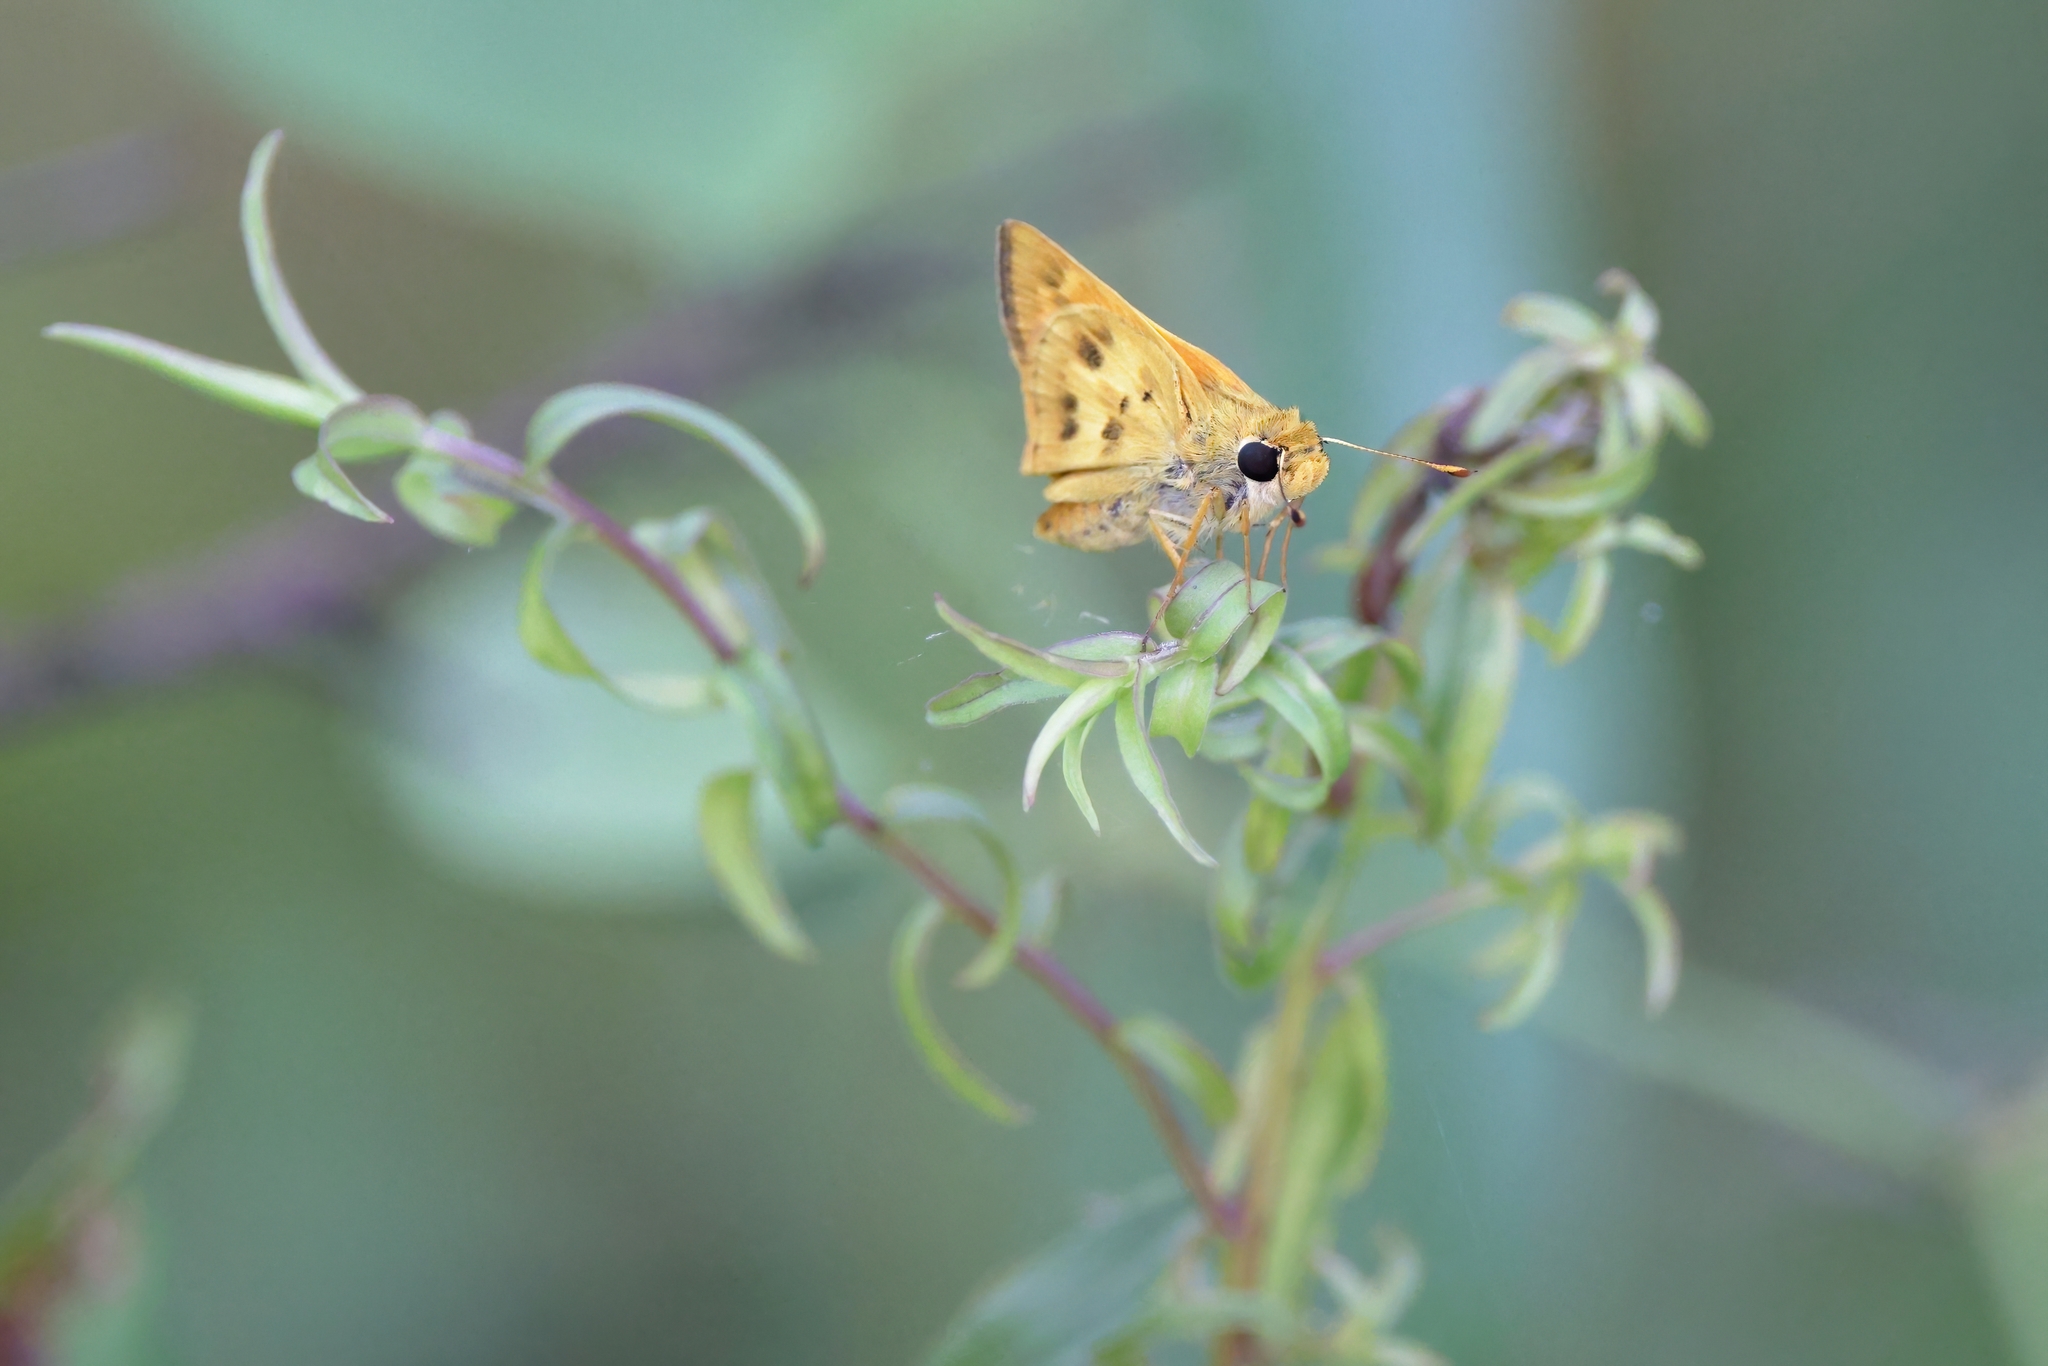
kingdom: Animalia
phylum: Arthropoda
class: Insecta
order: Lepidoptera
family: Hesperiidae
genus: Polites
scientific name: Polites vibex
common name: Whirlabout
